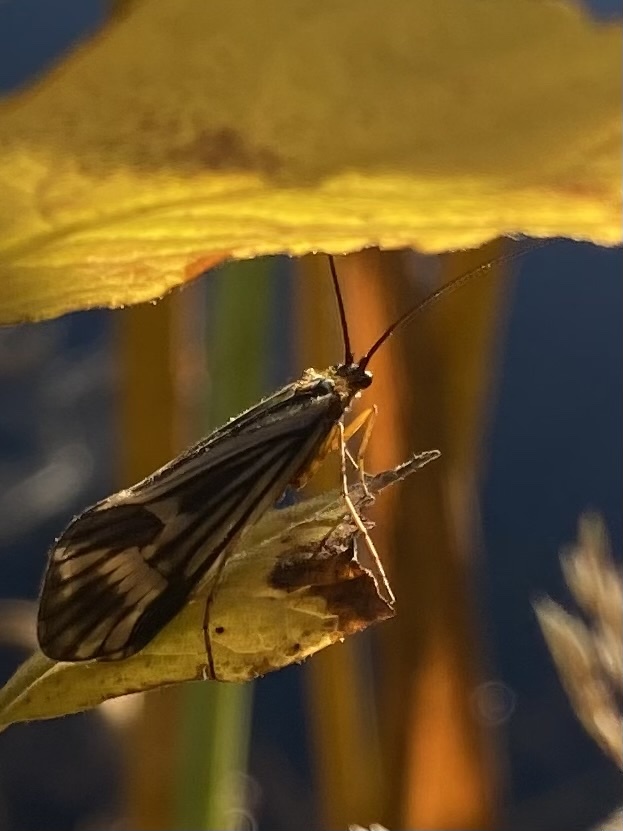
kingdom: Animalia
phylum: Arthropoda
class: Insecta
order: Trichoptera
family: Limnephilidae
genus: Halesochila
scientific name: Halesochila taylori
